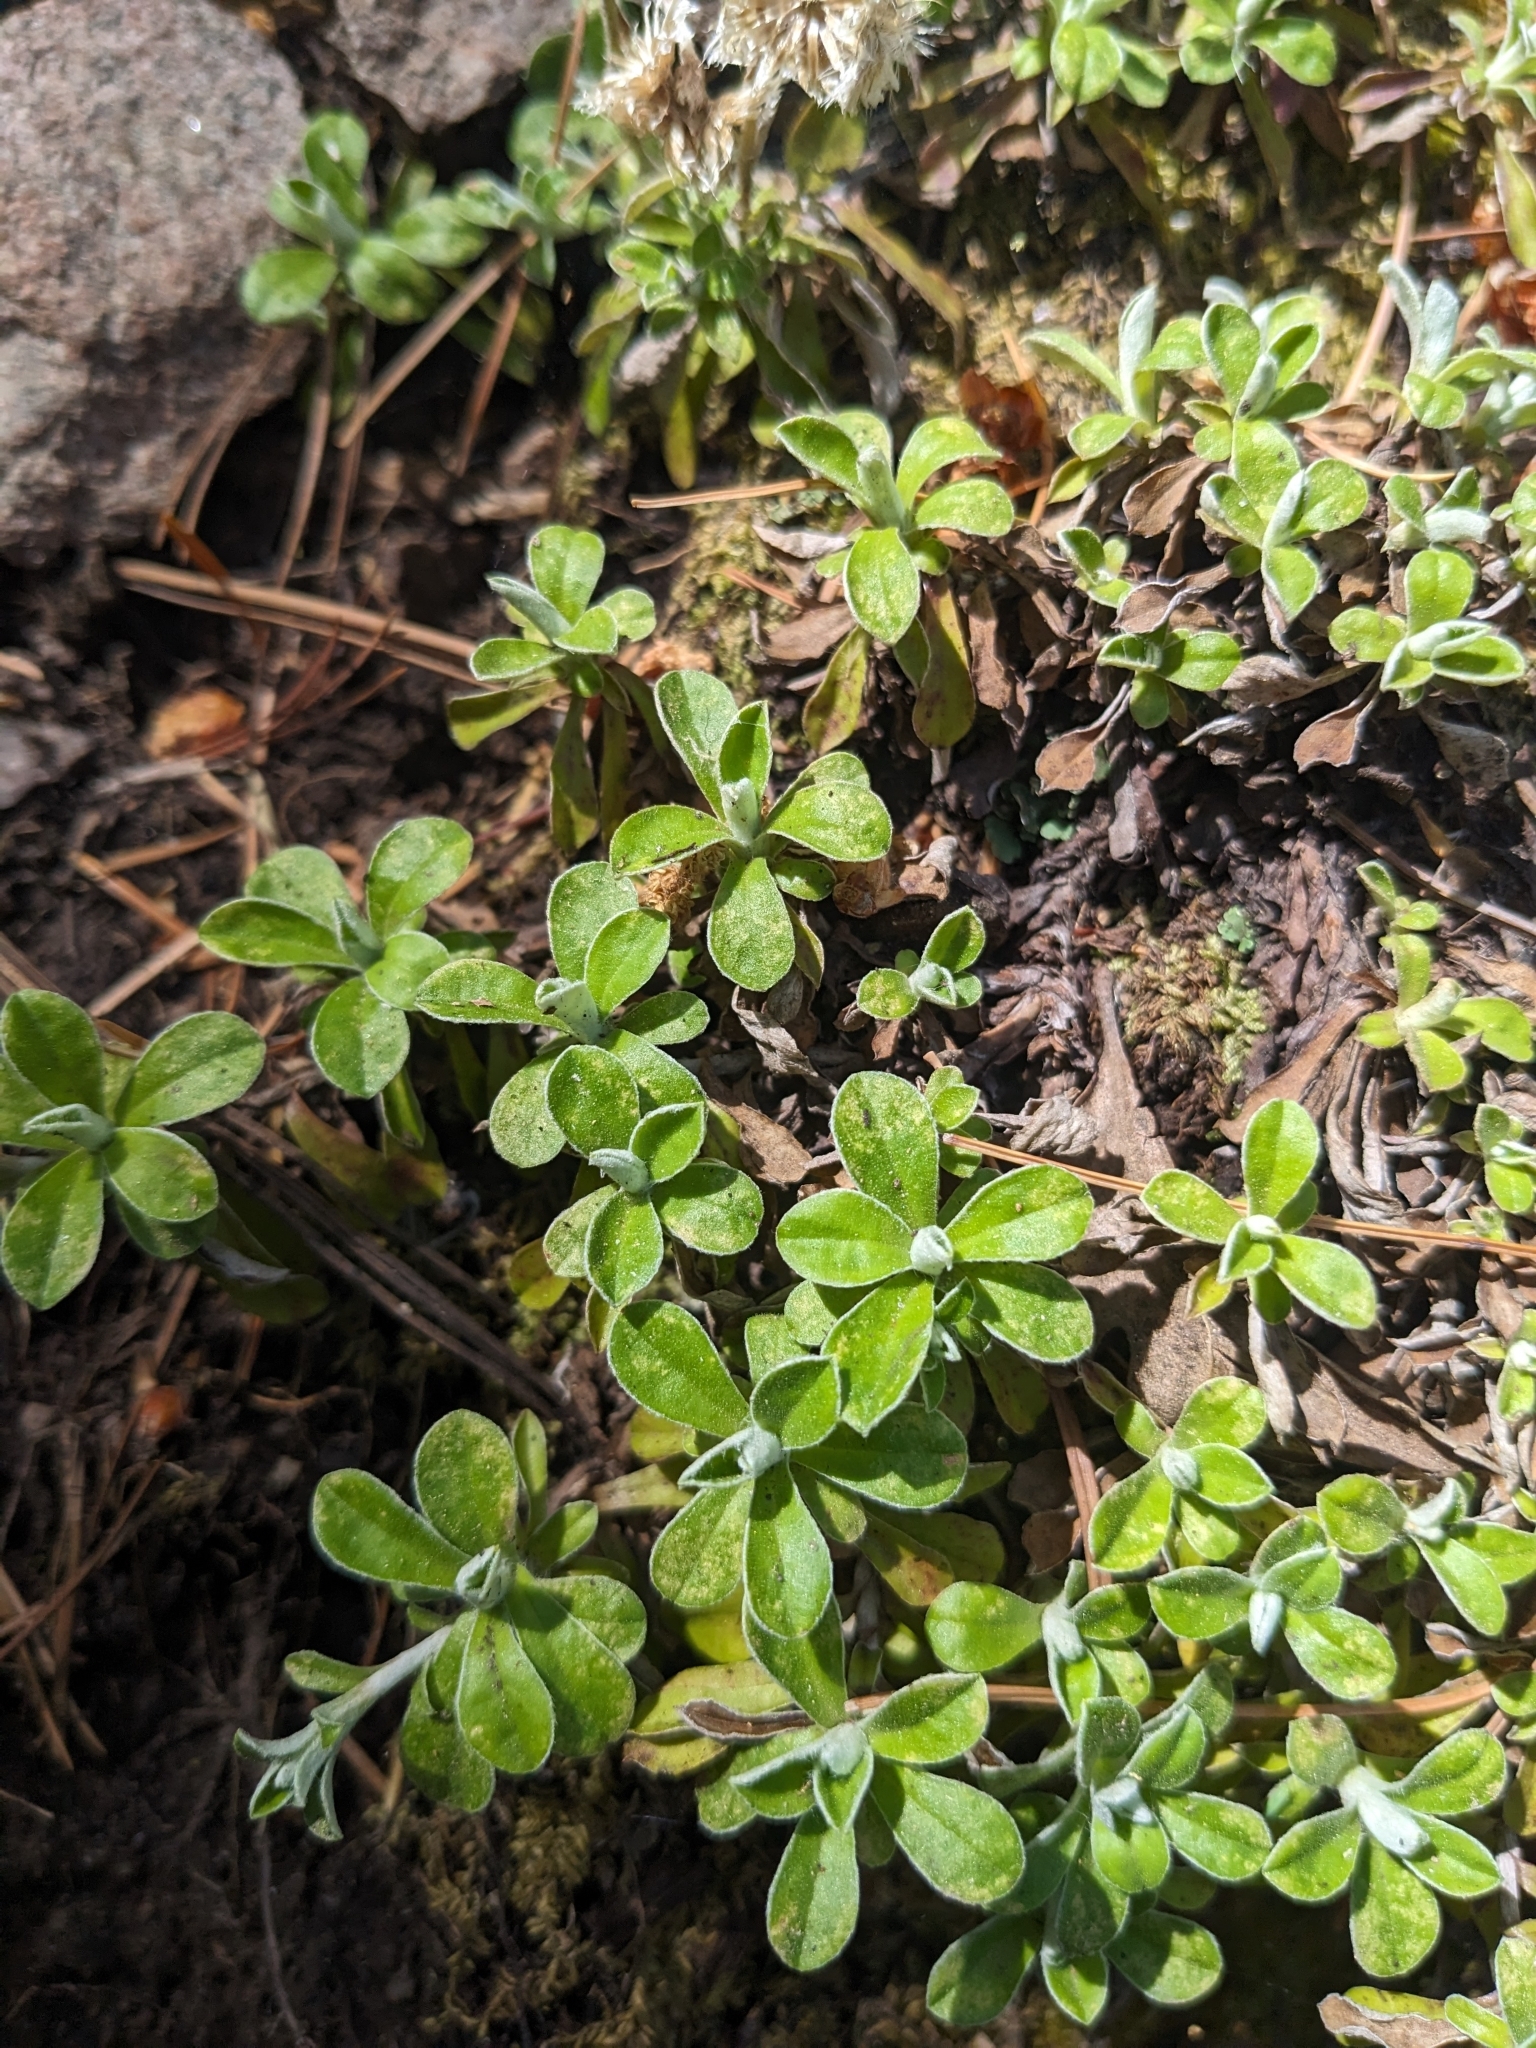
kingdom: Plantae
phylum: Tracheophyta
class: Magnoliopsida
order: Asterales
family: Asteraceae
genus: Antennaria
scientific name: Antennaria marginata
